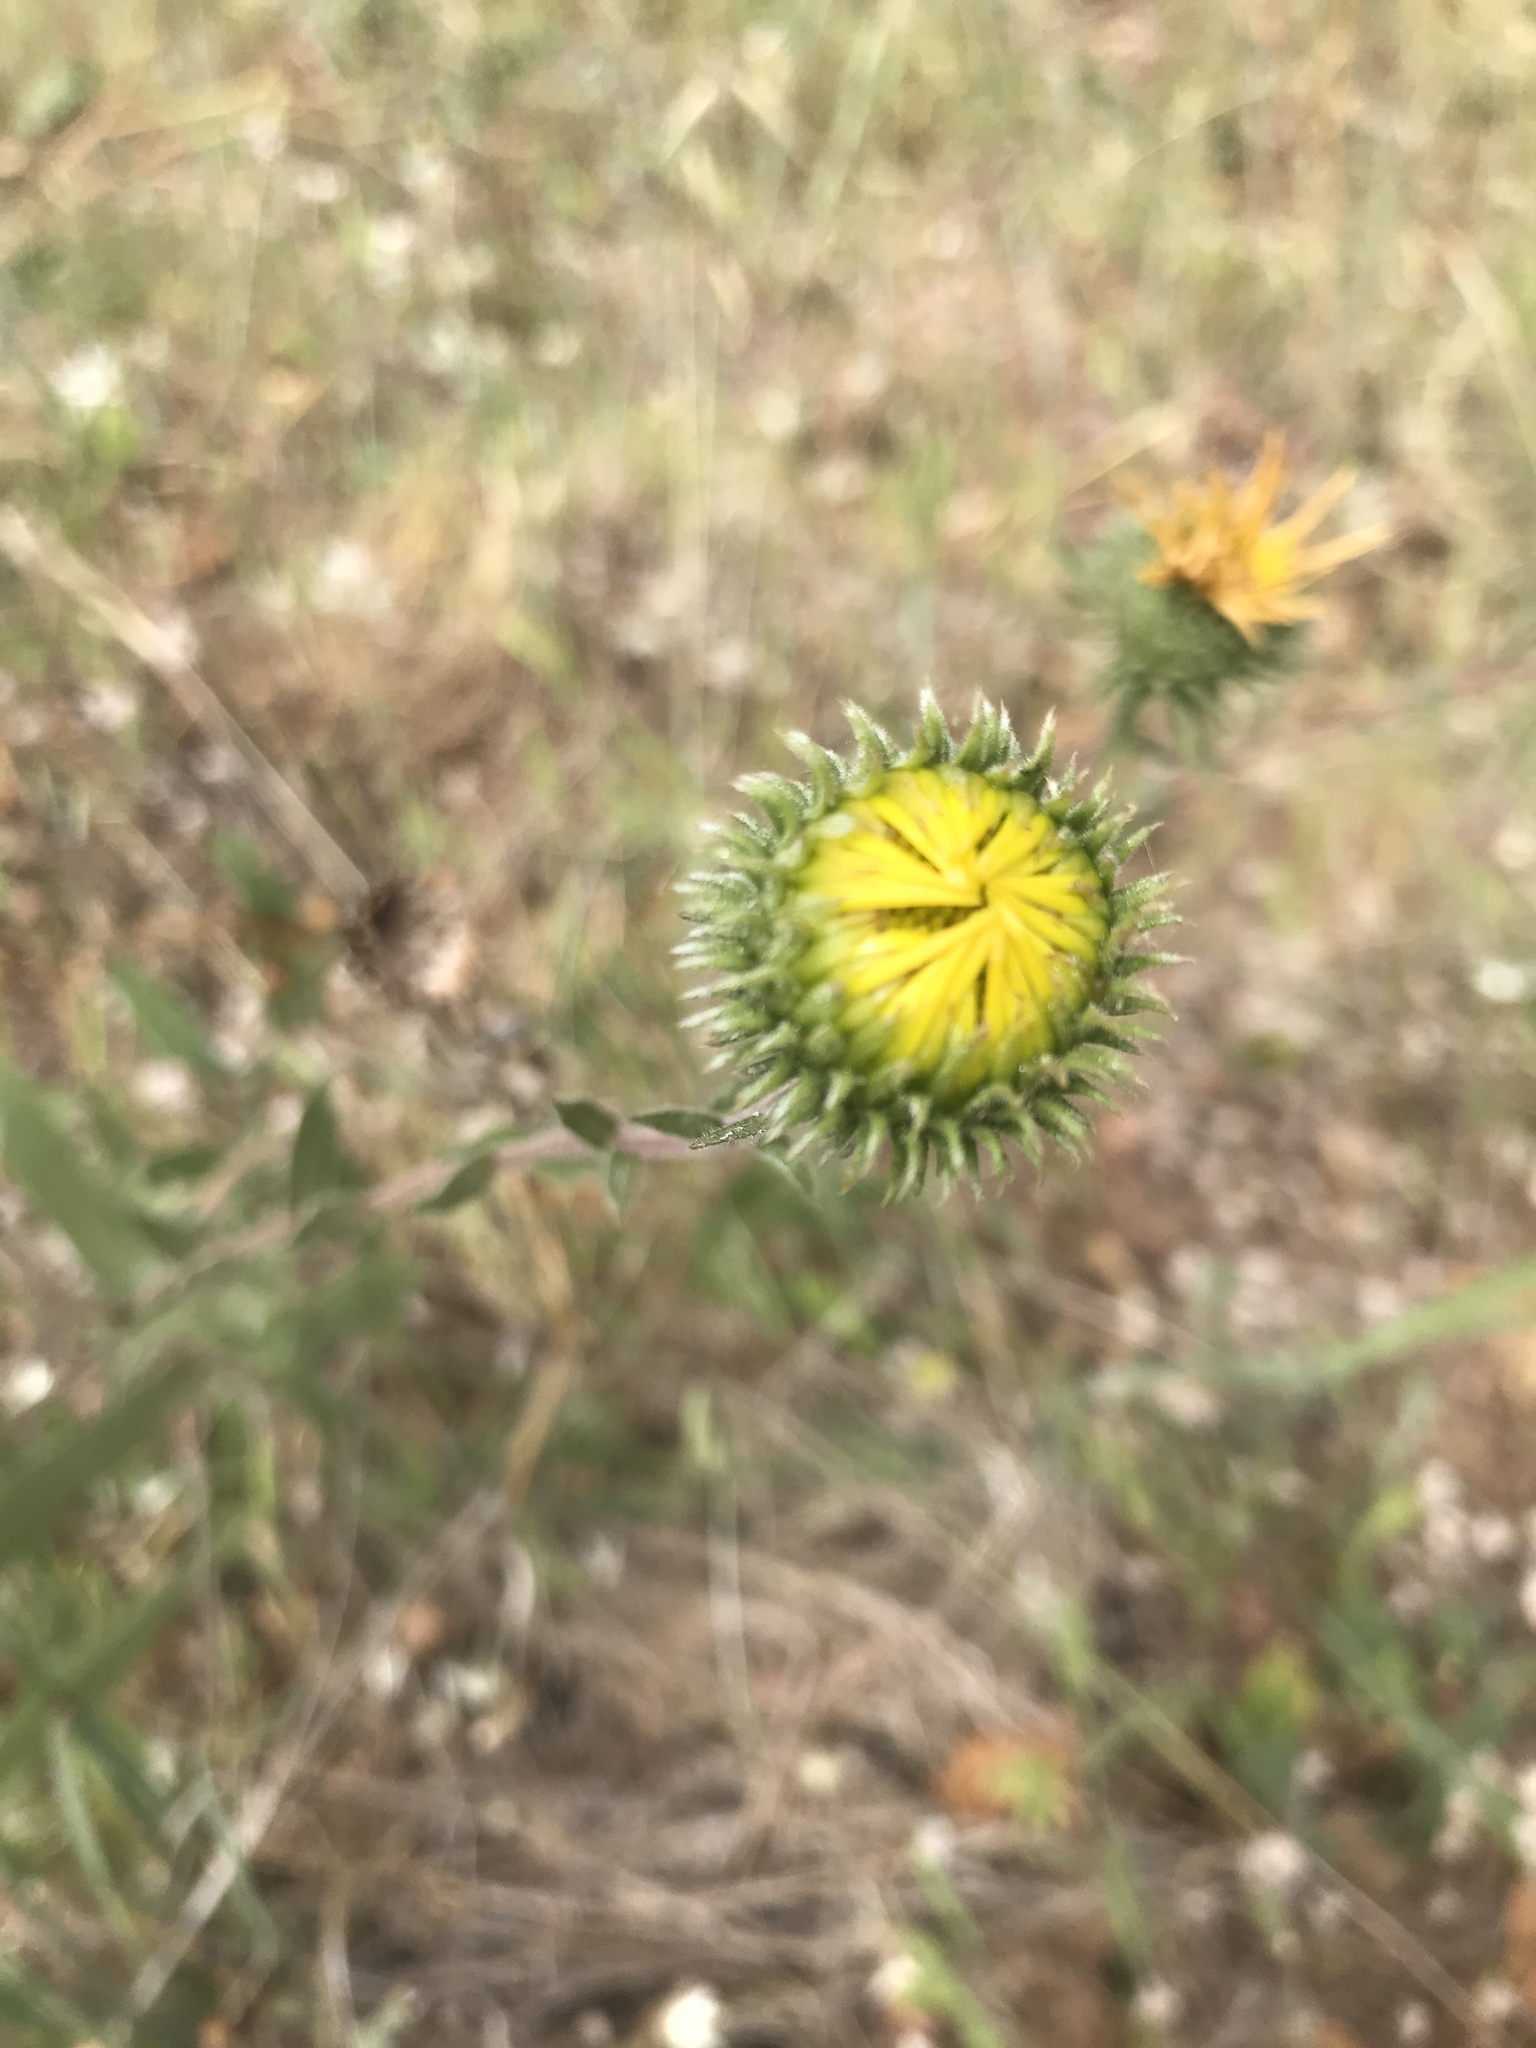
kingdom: Plantae
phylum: Tracheophyta
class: Magnoliopsida
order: Asterales
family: Asteraceae
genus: Grindelia
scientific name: Grindelia hirsutula
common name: Hairy gumweed
